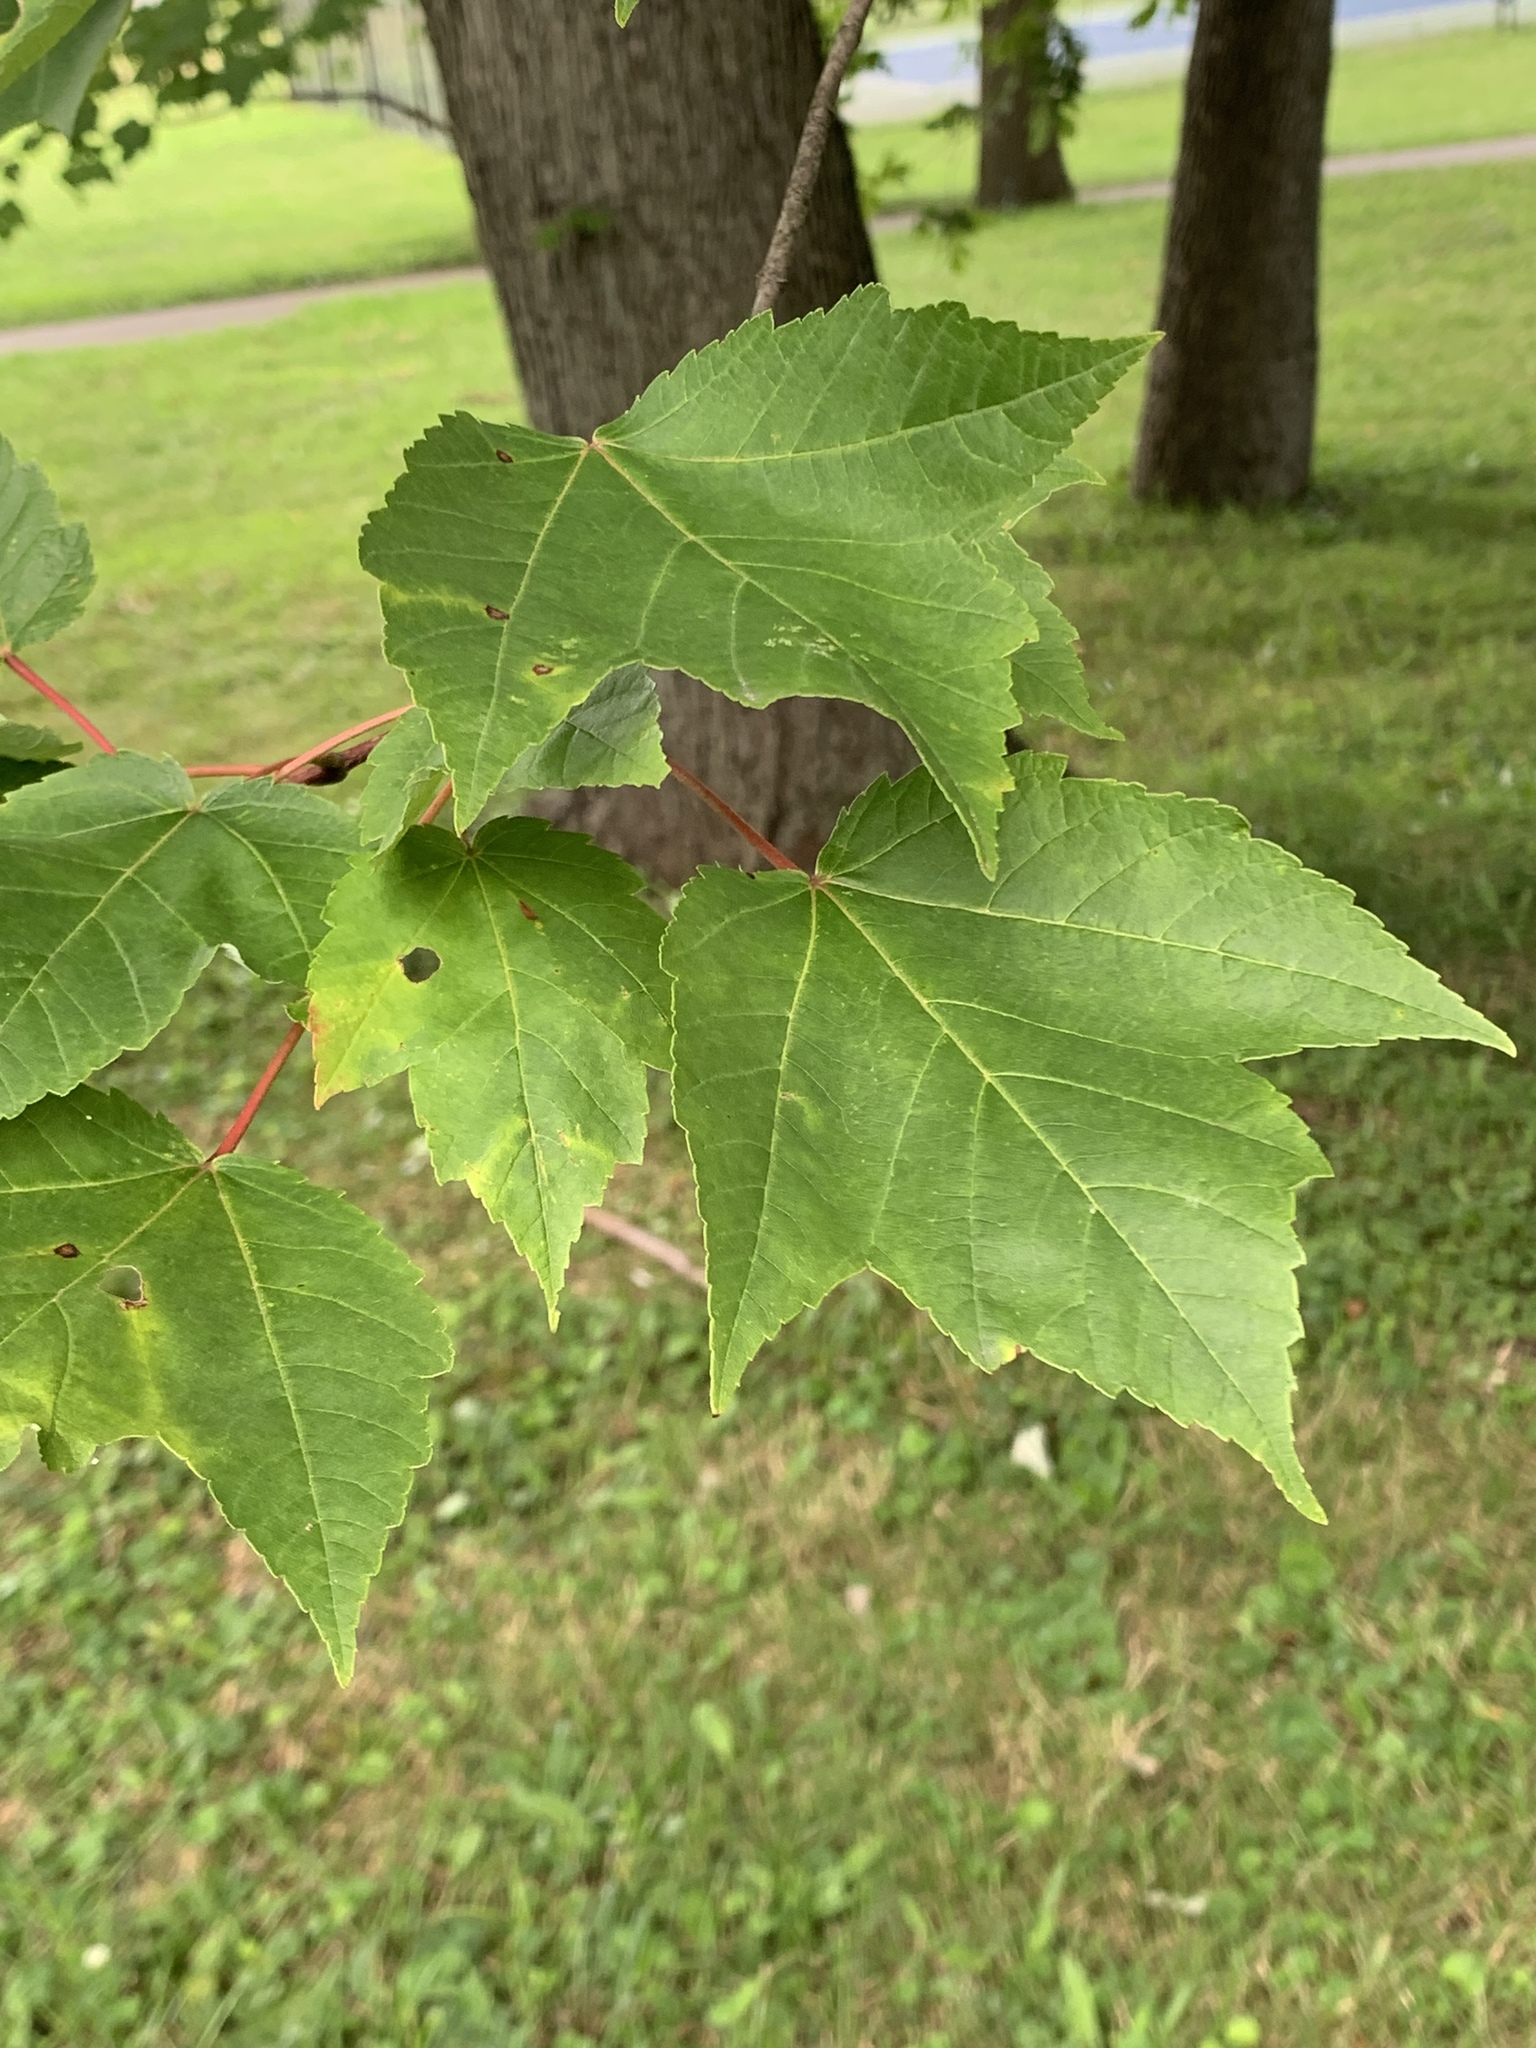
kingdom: Plantae
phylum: Tracheophyta
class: Magnoliopsida
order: Sapindales
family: Sapindaceae
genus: Acer
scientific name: Acer rubrum
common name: Red maple
